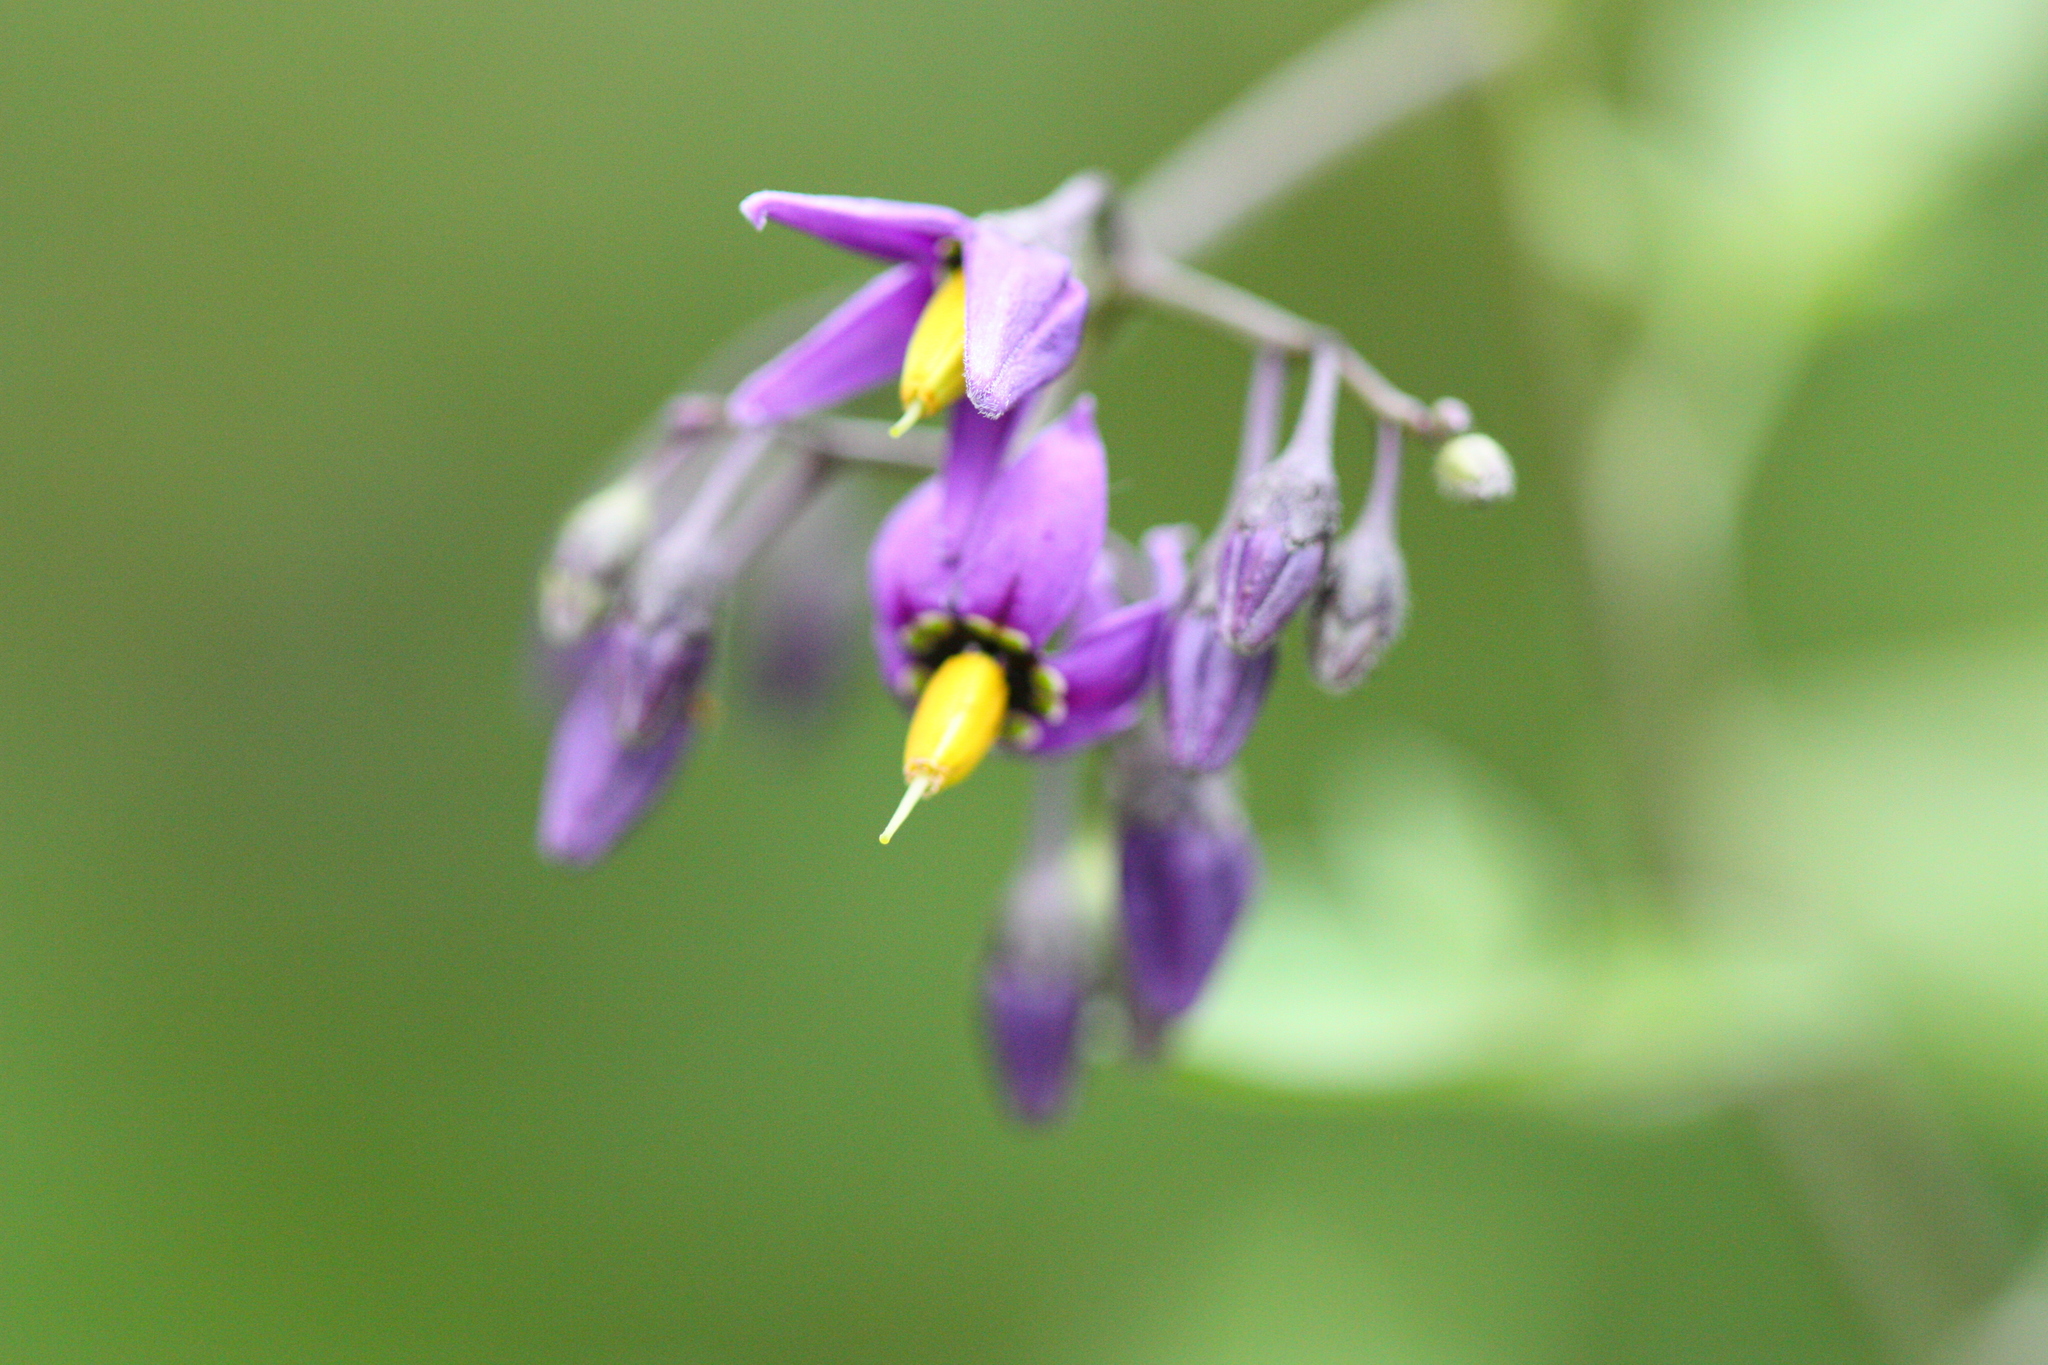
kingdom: Plantae
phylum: Tracheophyta
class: Magnoliopsida
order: Solanales
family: Solanaceae
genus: Solanum
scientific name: Solanum dulcamara
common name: Climbing nightshade
